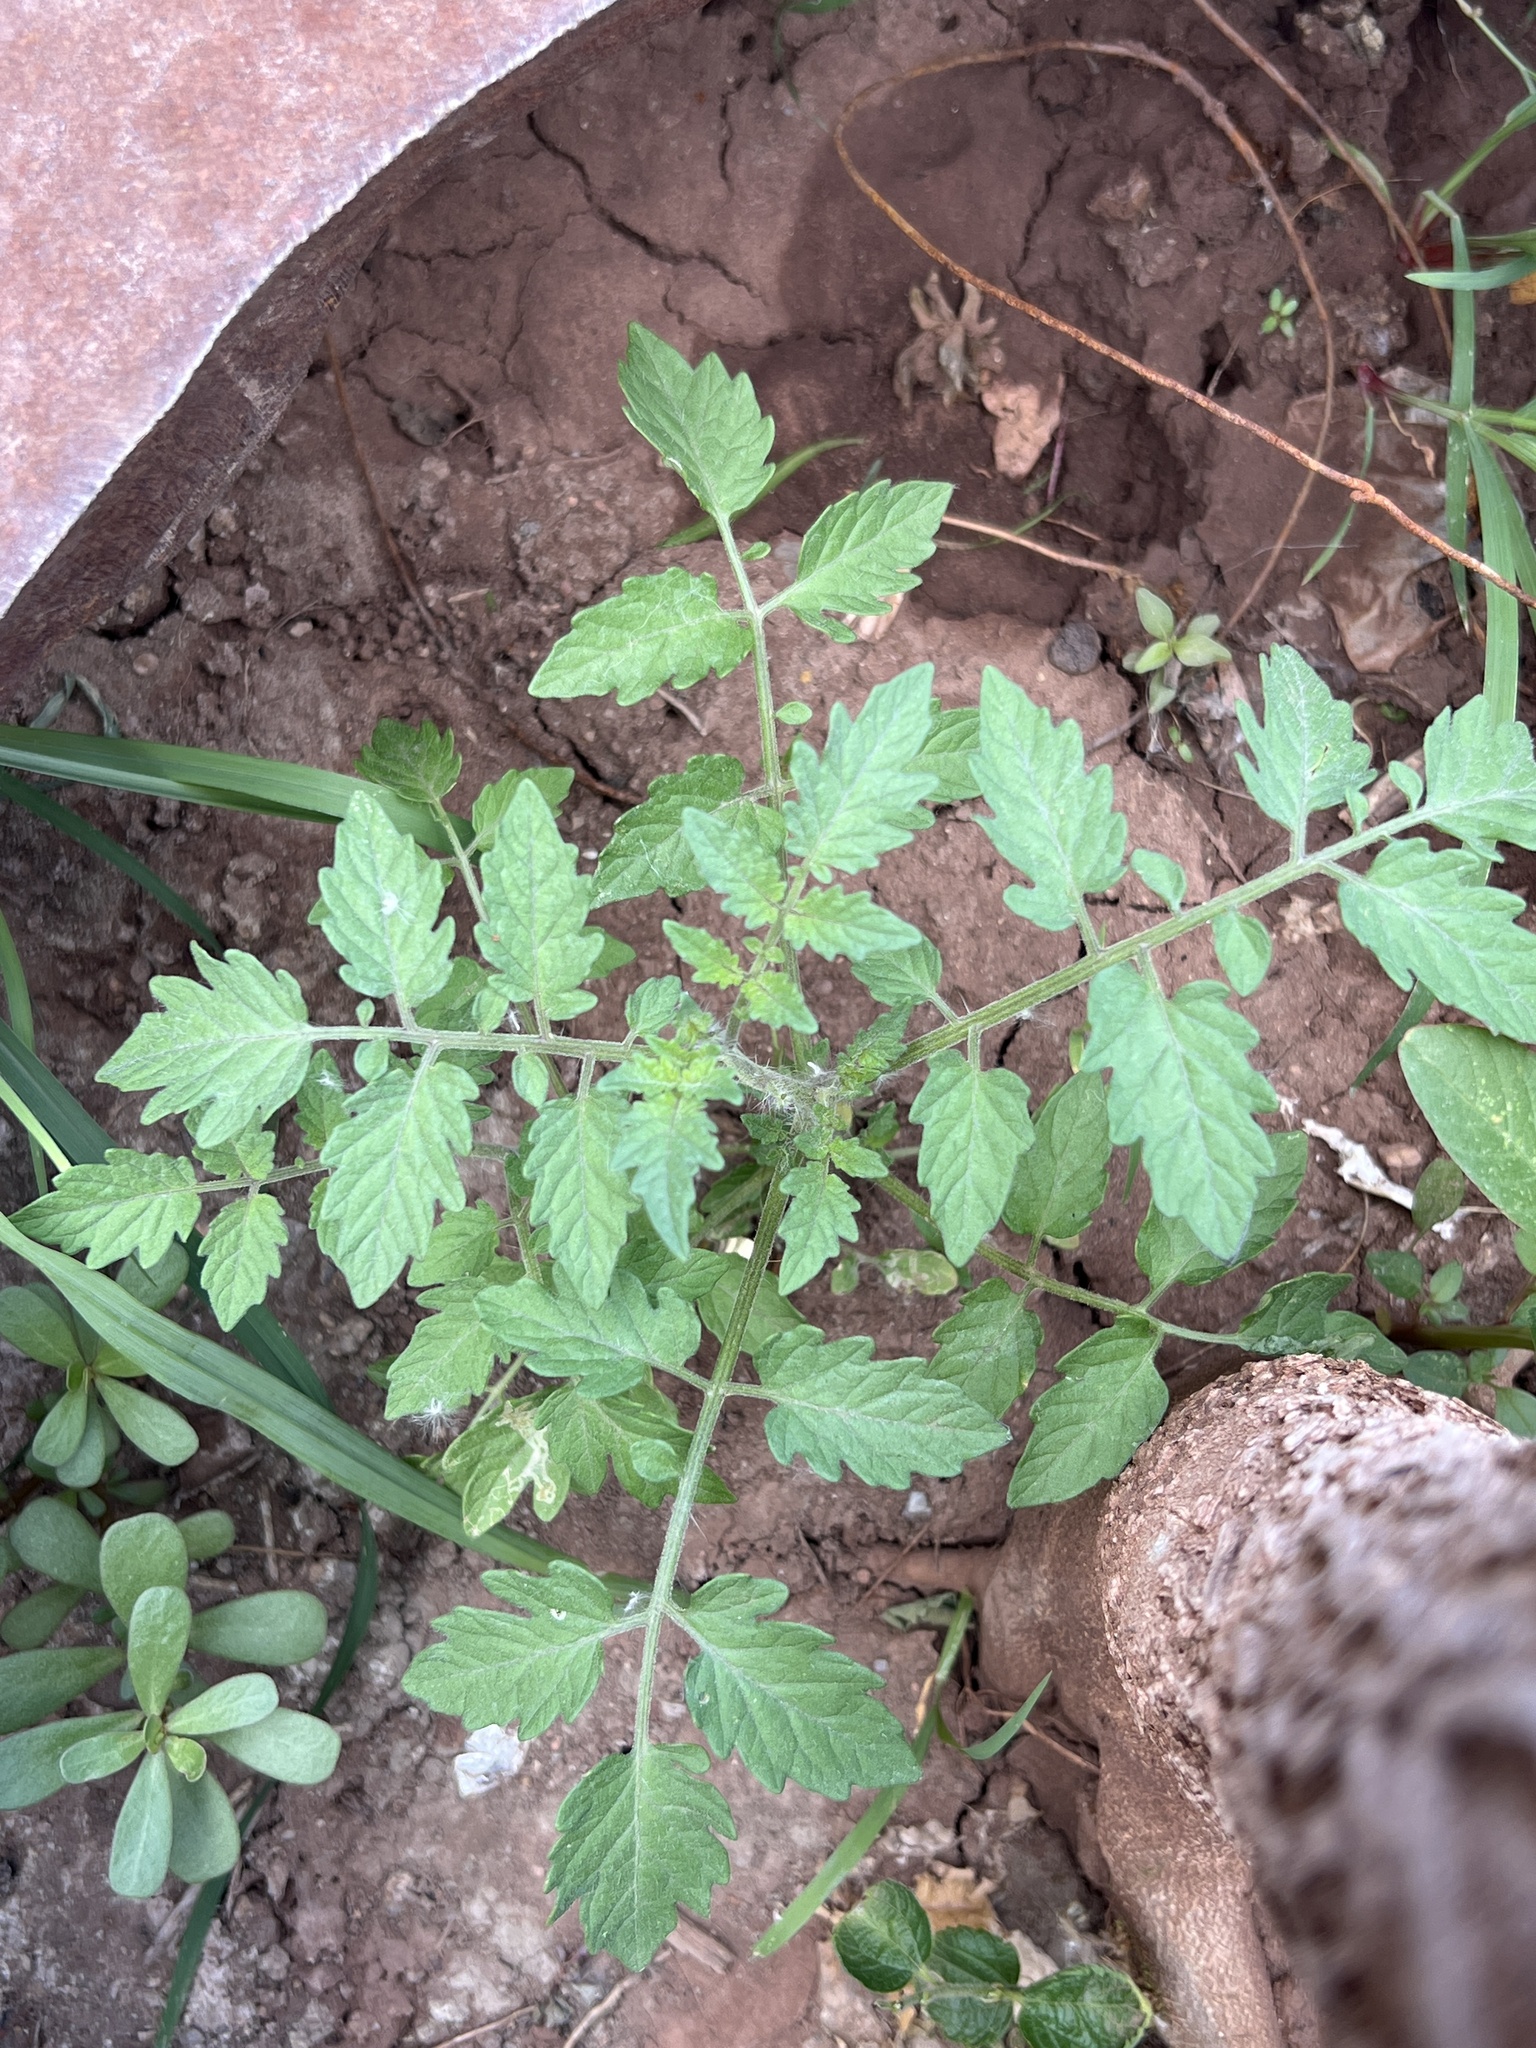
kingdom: Plantae
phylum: Tracheophyta
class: Magnoliopsida
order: Solanales
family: Solanaceae
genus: Solanum
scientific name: Solanum lycopersicum
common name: Garden tomato
